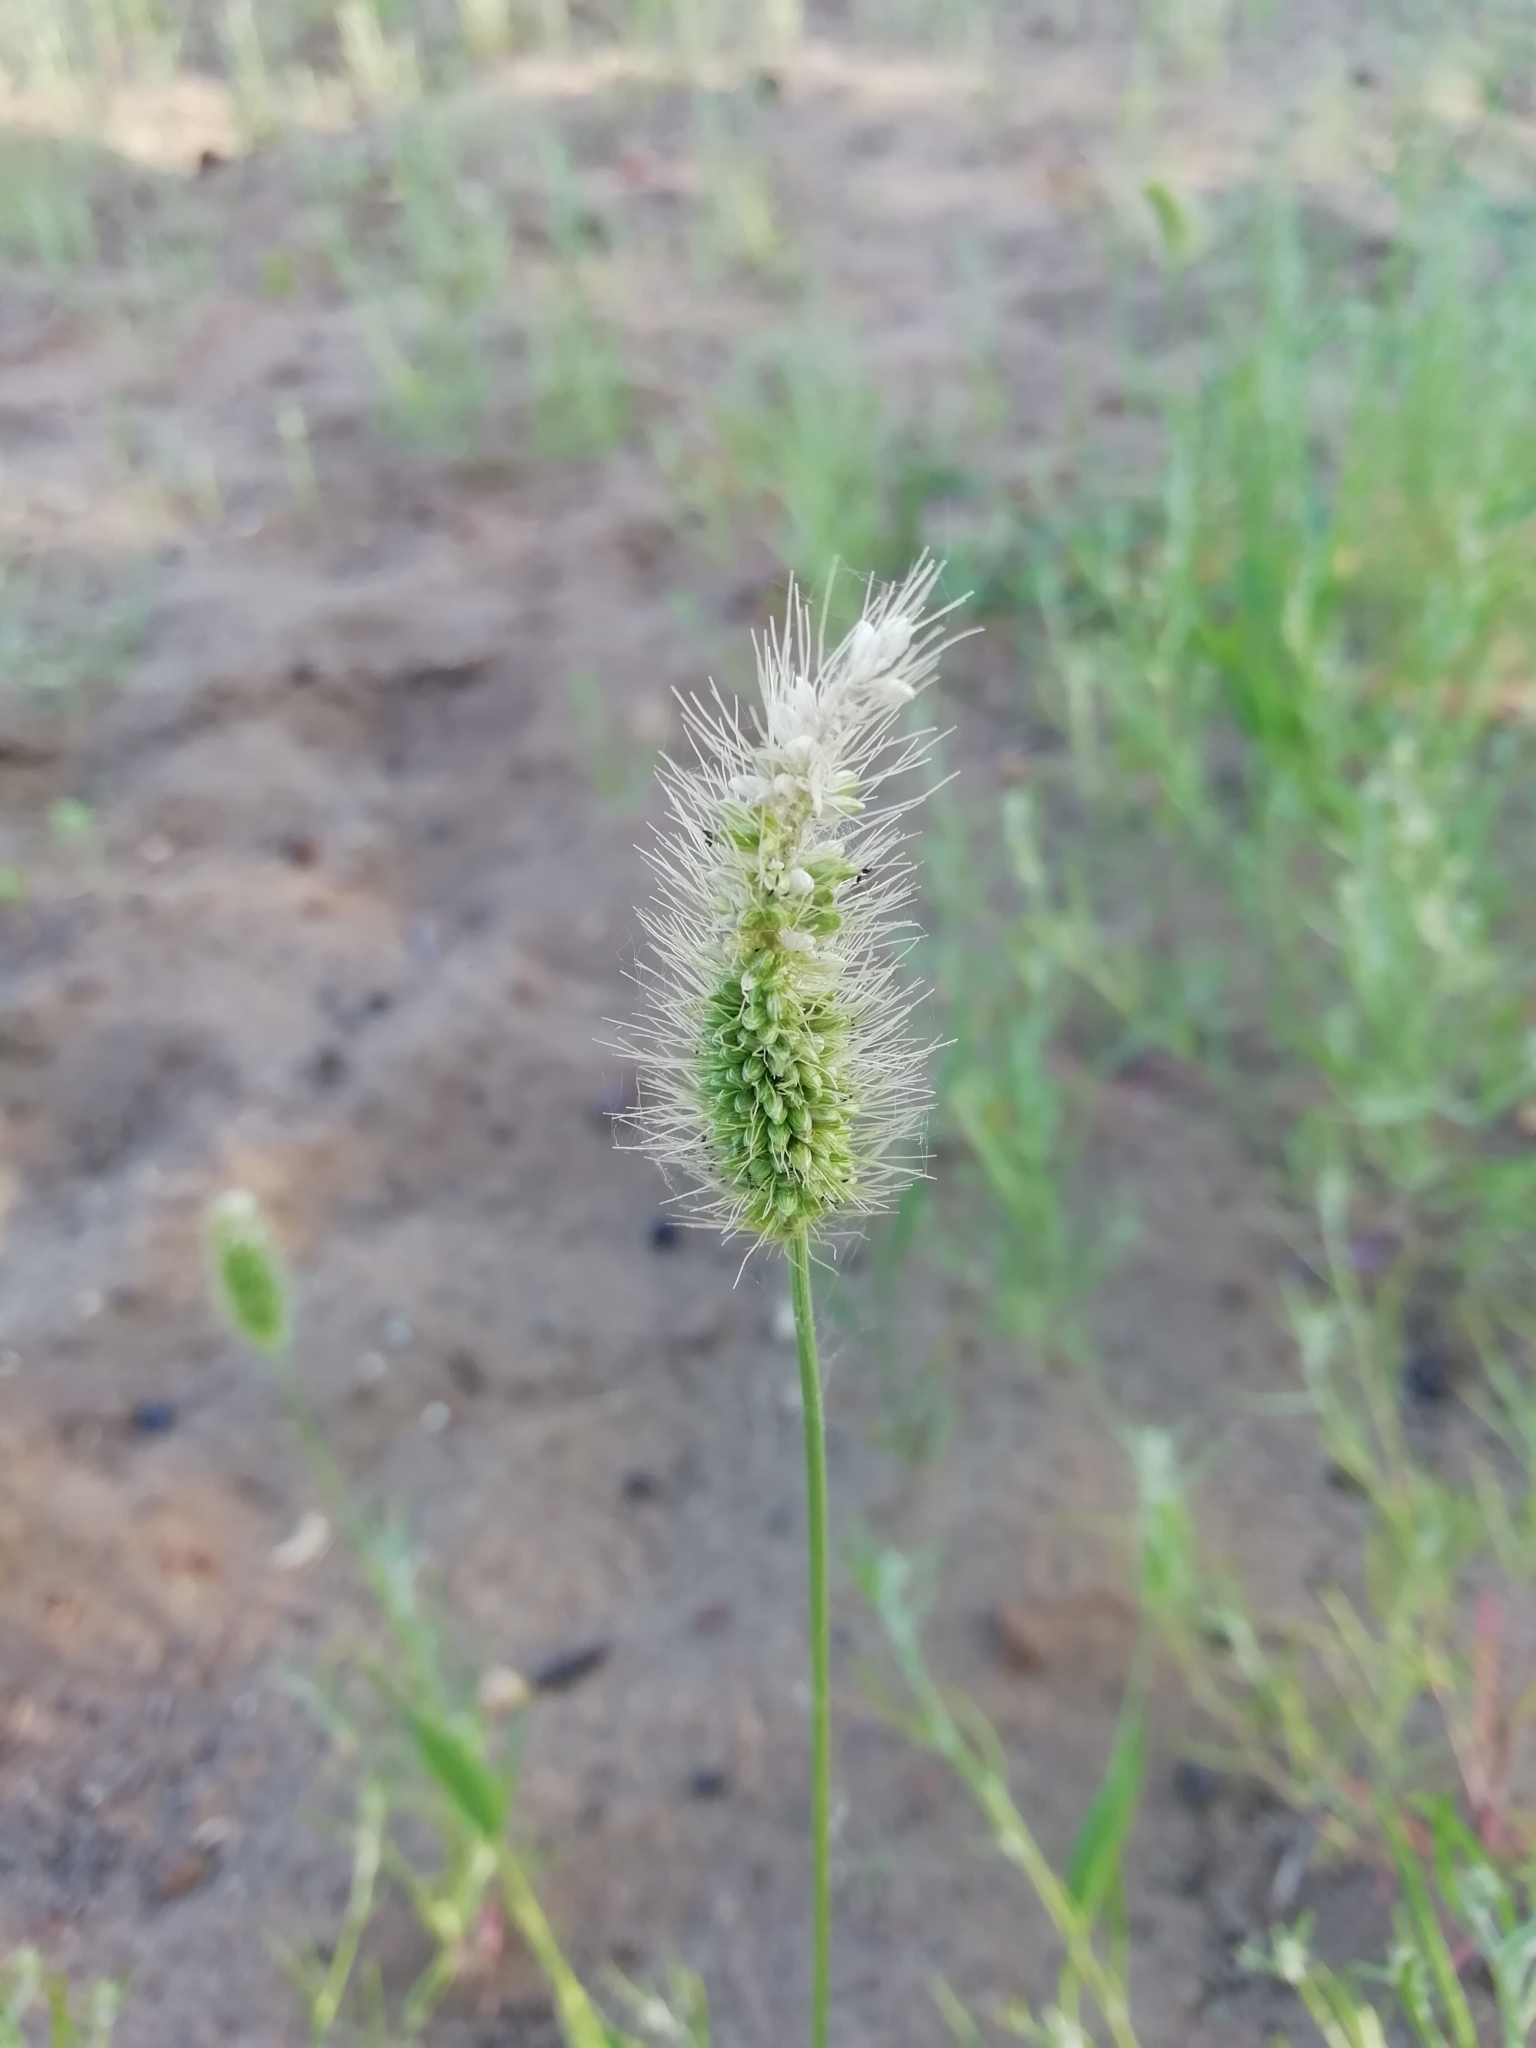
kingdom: Plantae
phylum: Tracheophyta
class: Liliopsida
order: Poales
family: Poaceae
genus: Setaria
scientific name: Setaria viridis
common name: Green bristlegrass
